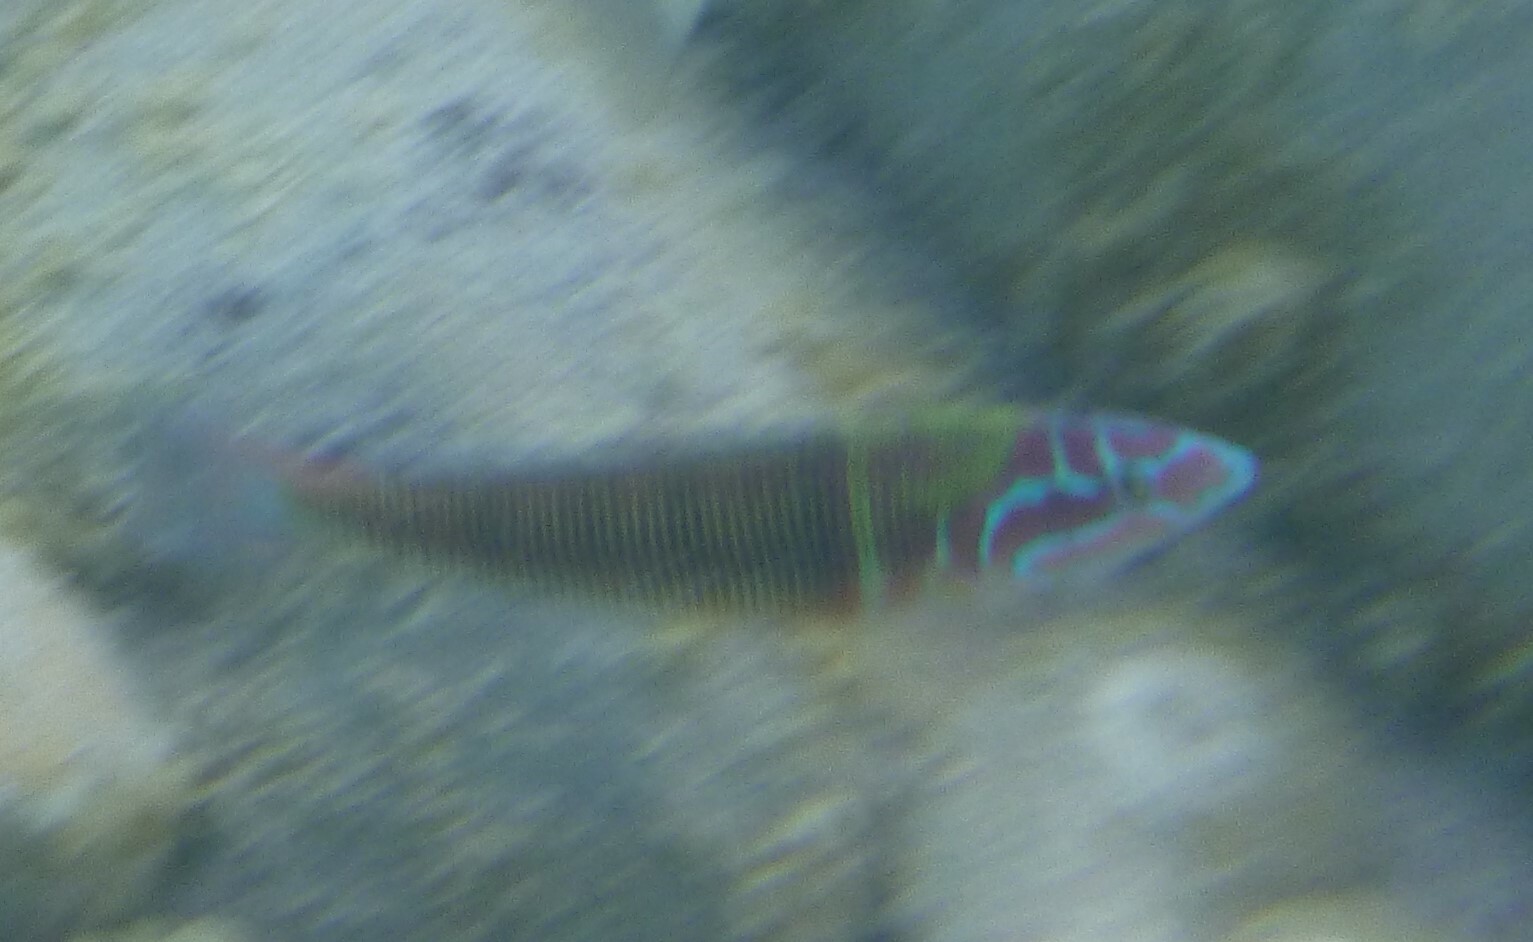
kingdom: Animalia
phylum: Chordata
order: Perciformes
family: Labridae
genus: Thalassoma
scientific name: Thalassoma pavo
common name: Ornate wrasse
